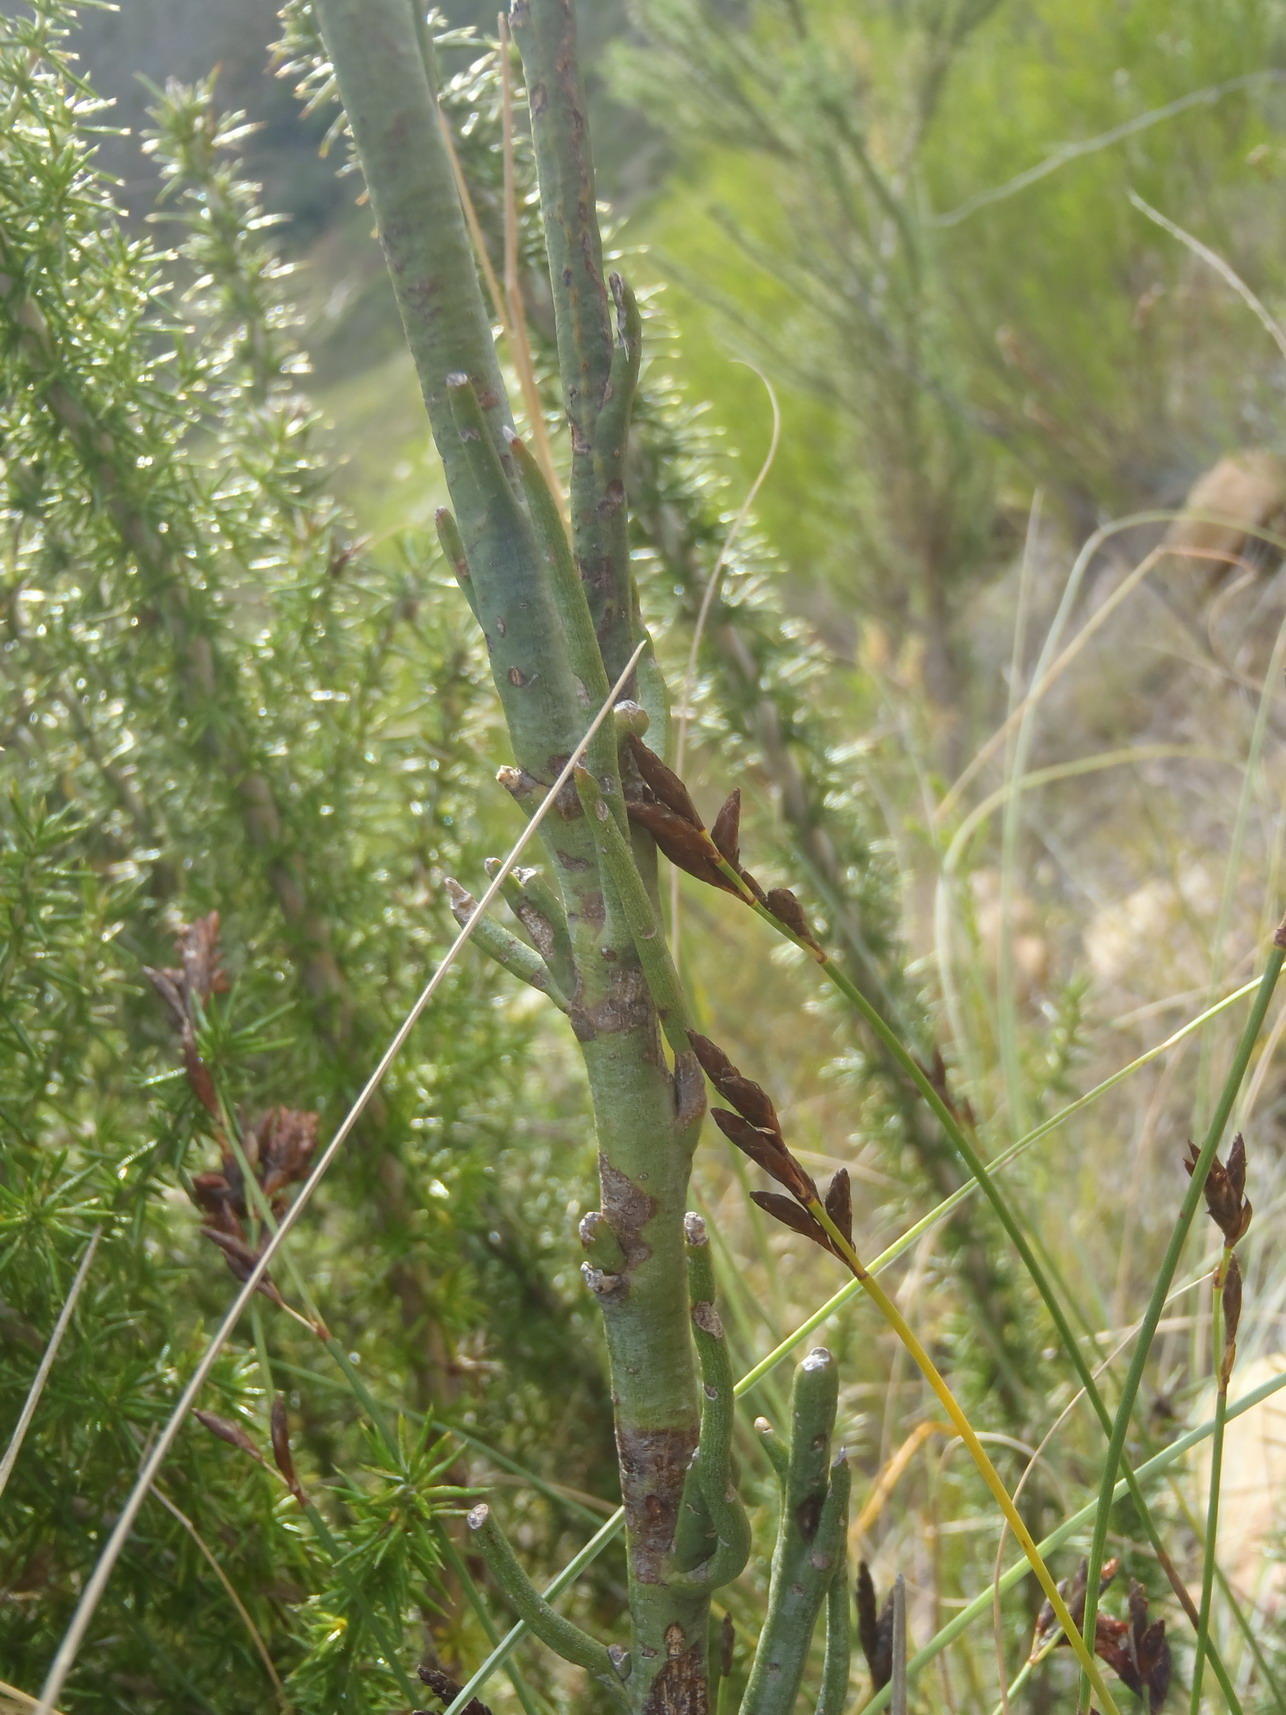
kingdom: Plantae
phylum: Tracheophyta
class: Magnoliopsida
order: Santalales
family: Thesiaceae
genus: Thesium
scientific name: Thesium strictum
